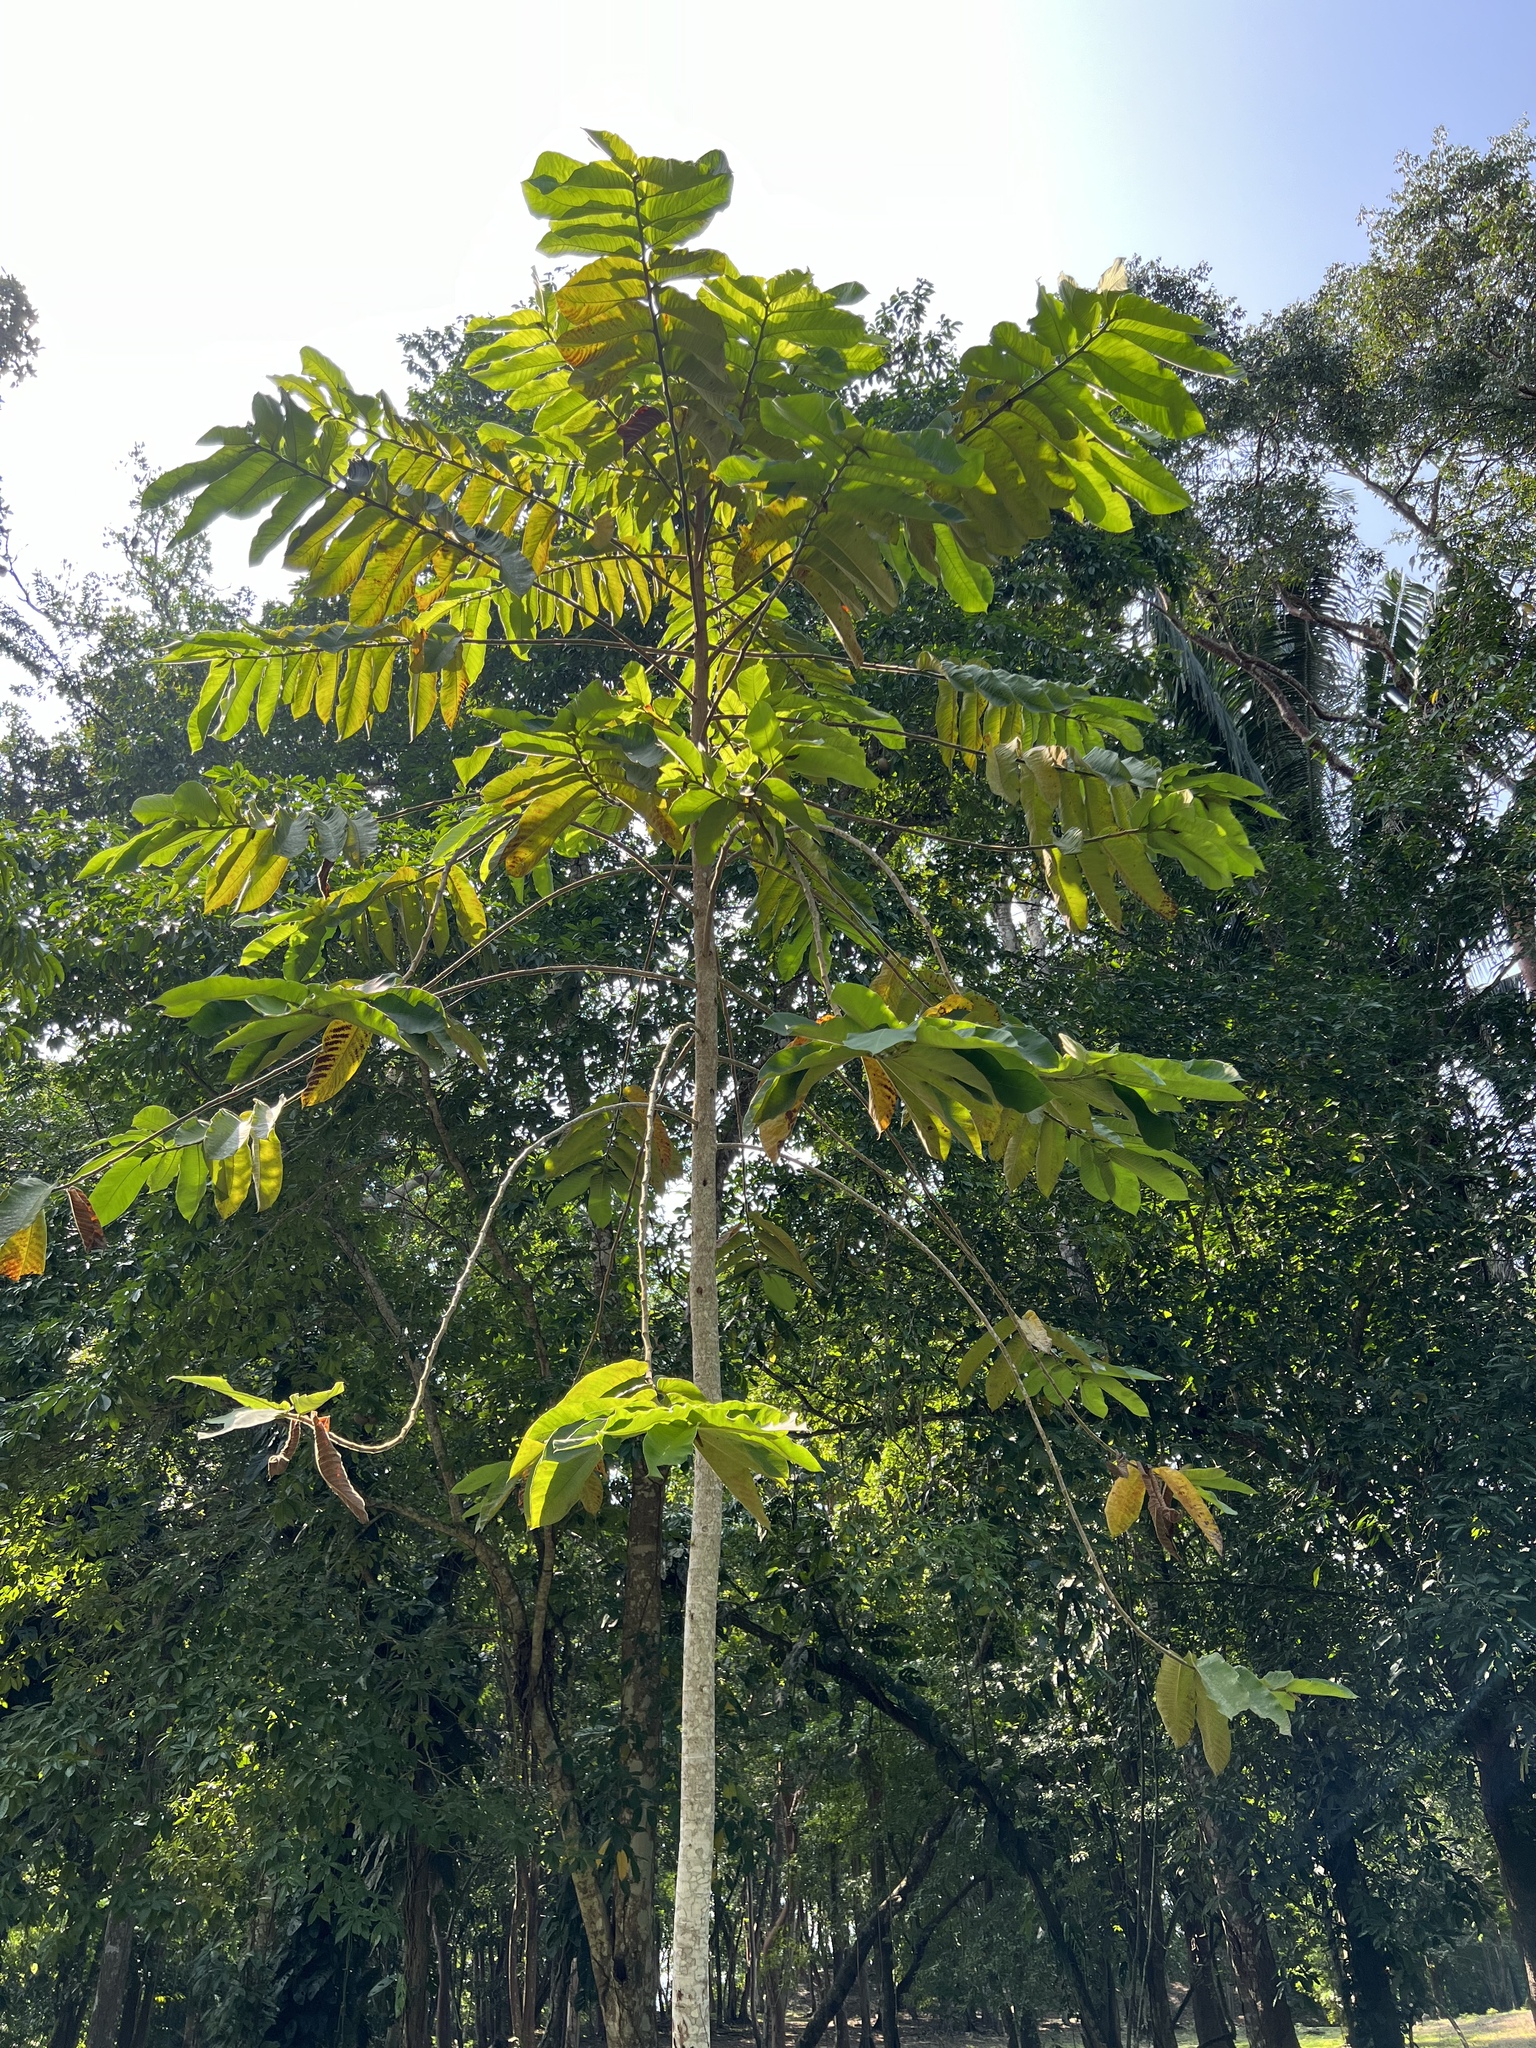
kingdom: Plantae
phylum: Tracheophyta
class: Magnoliopsida
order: Rosales
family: Moraceae
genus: Castilla
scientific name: Castilla elastica
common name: Castilla rubber
